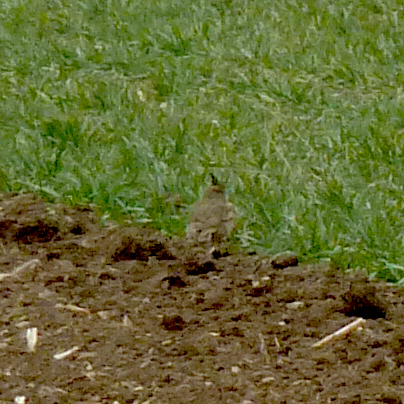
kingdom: Animalia
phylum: Chordata
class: Aves
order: Passeriformes
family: Alaudidae
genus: Galerida
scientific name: Galerida cristata
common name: Crested lark
